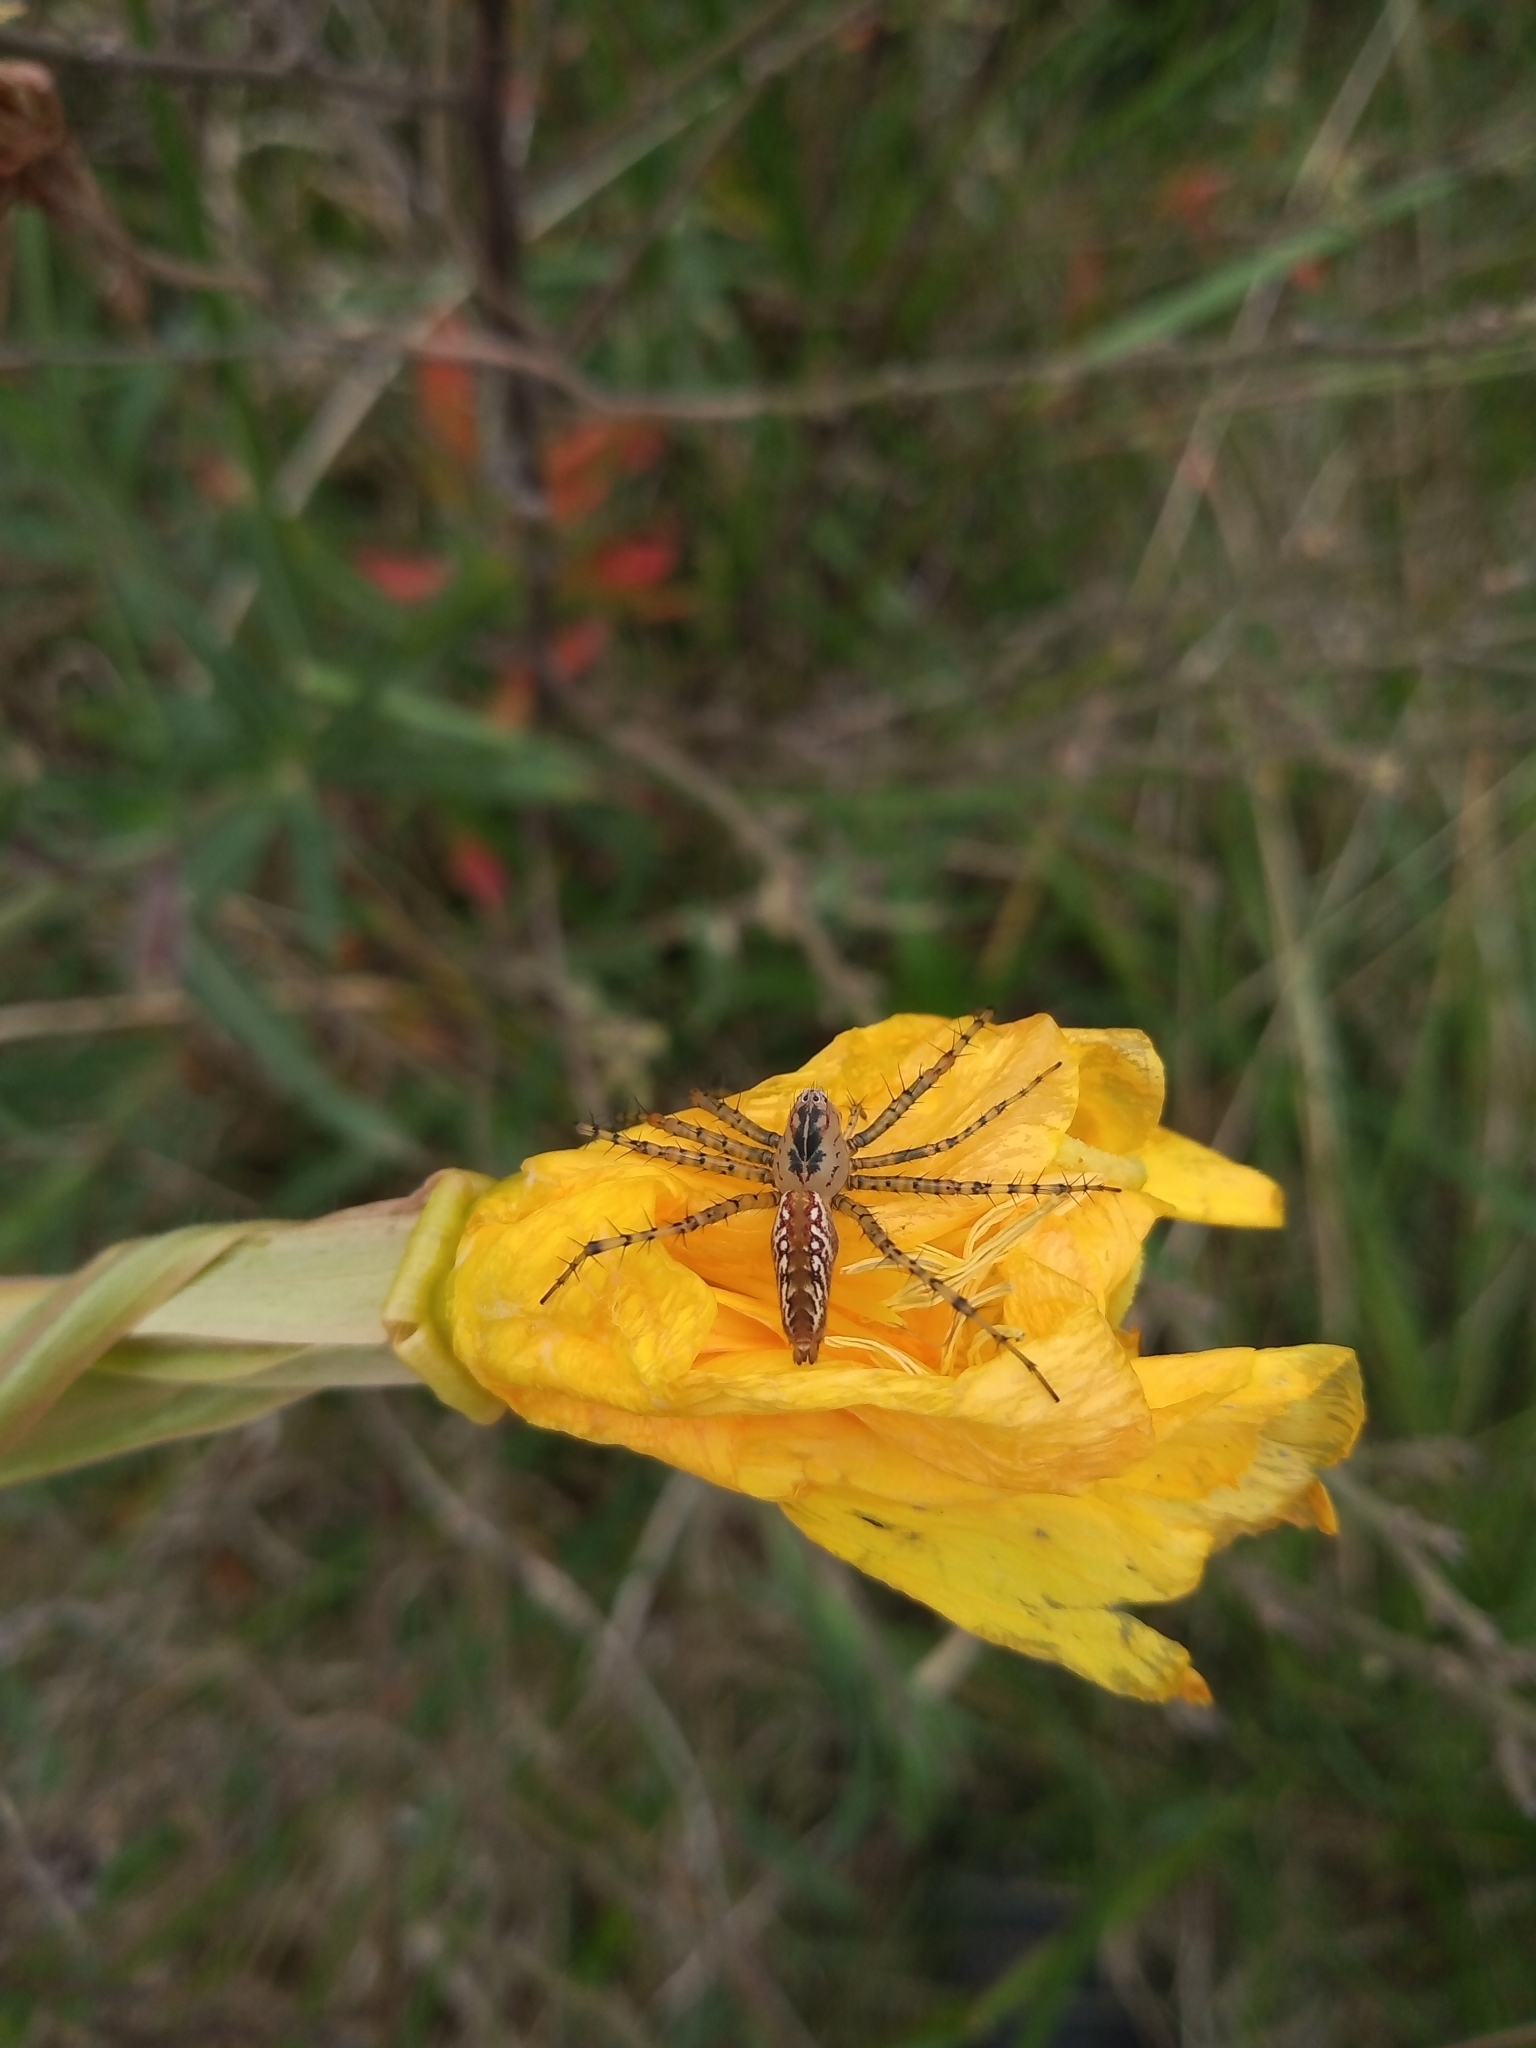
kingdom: Animalia
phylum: Arthropoda
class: Arachnida
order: Araneae
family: Oxyopidae
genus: Peucetia
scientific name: Peucetia flava
